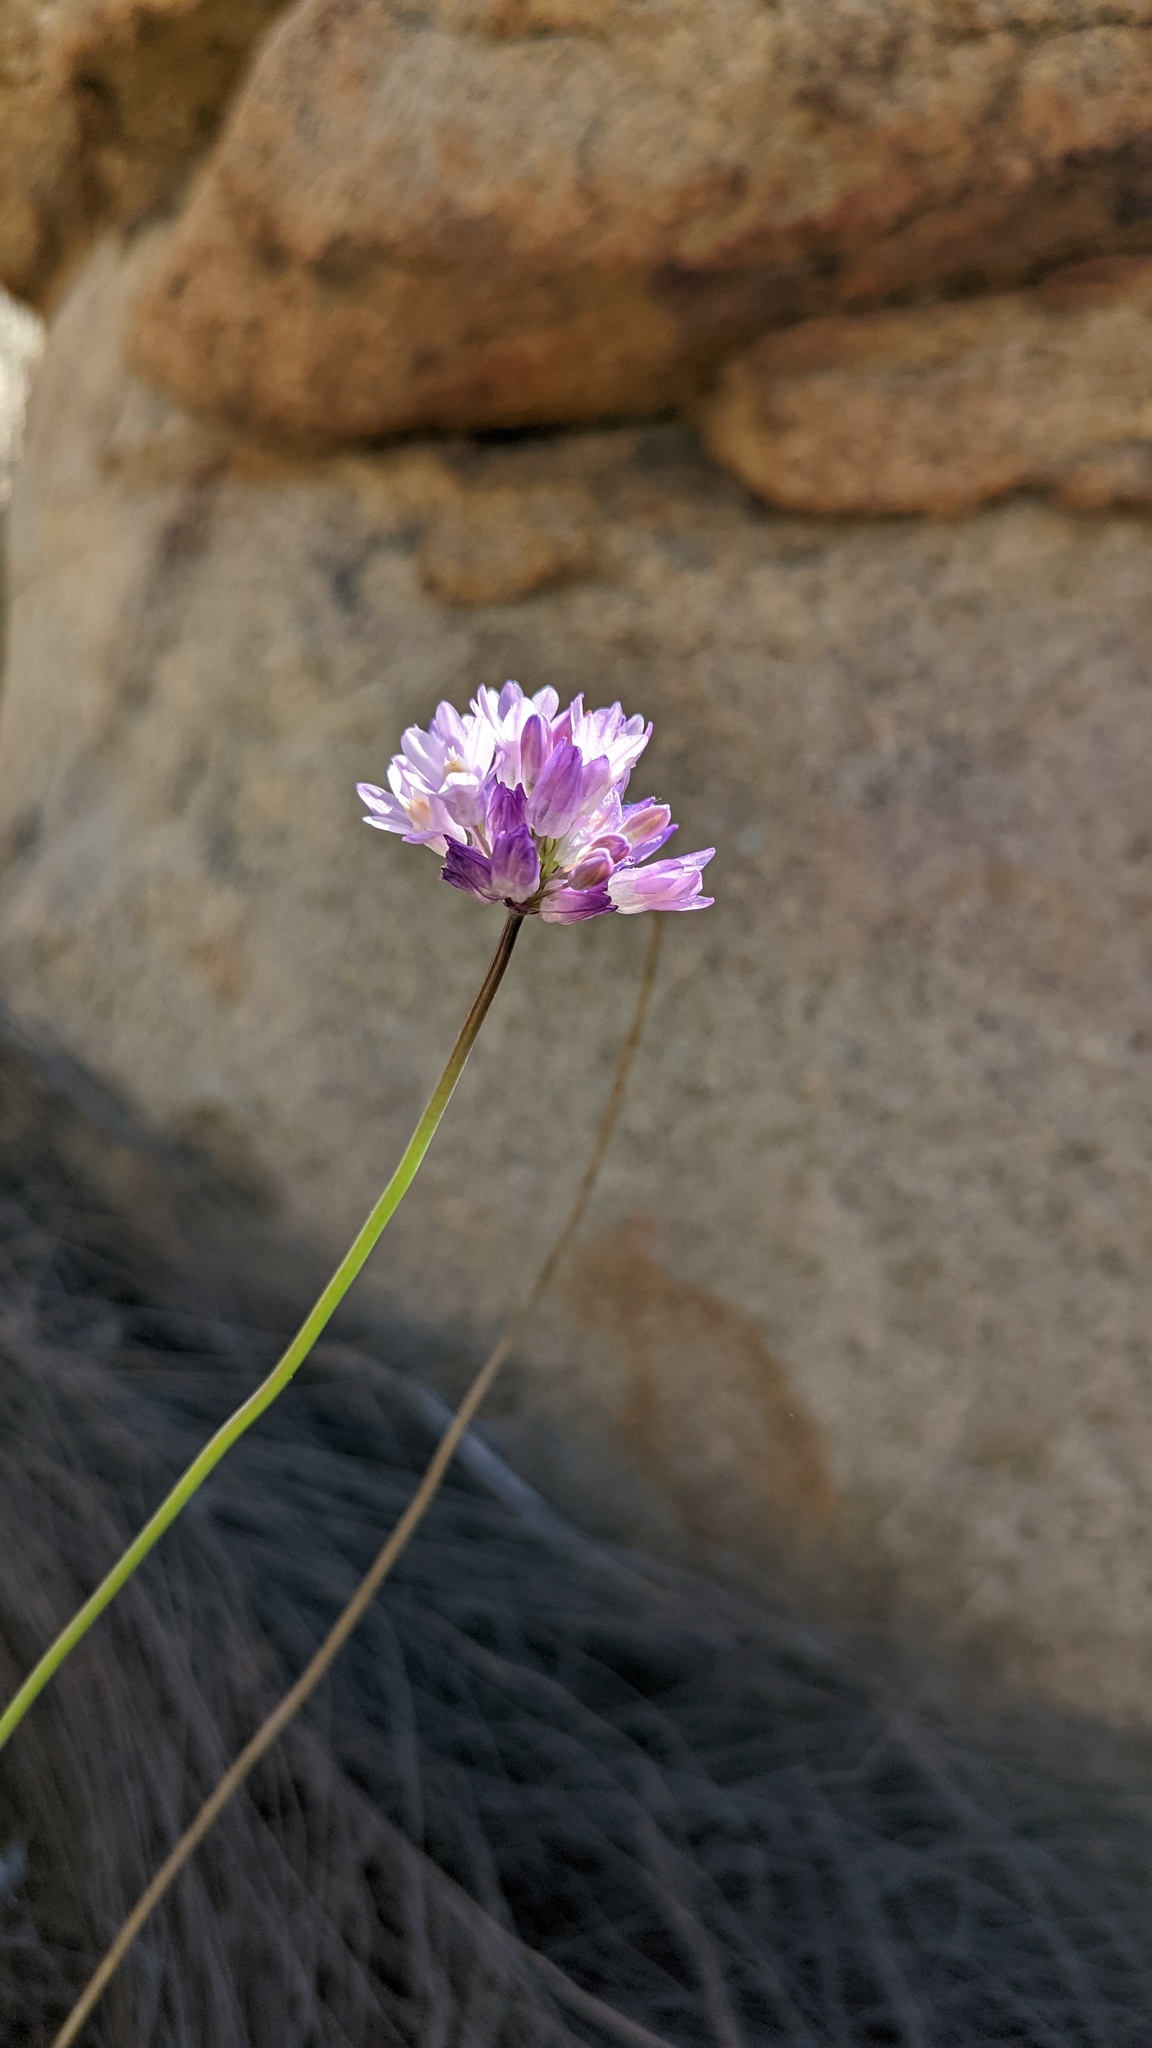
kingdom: Plantae
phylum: Tracheophyta
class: Liliopsida
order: Asparagales
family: Asparagaceae
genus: Dipterostemon
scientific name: Dipterostemon capitatus
